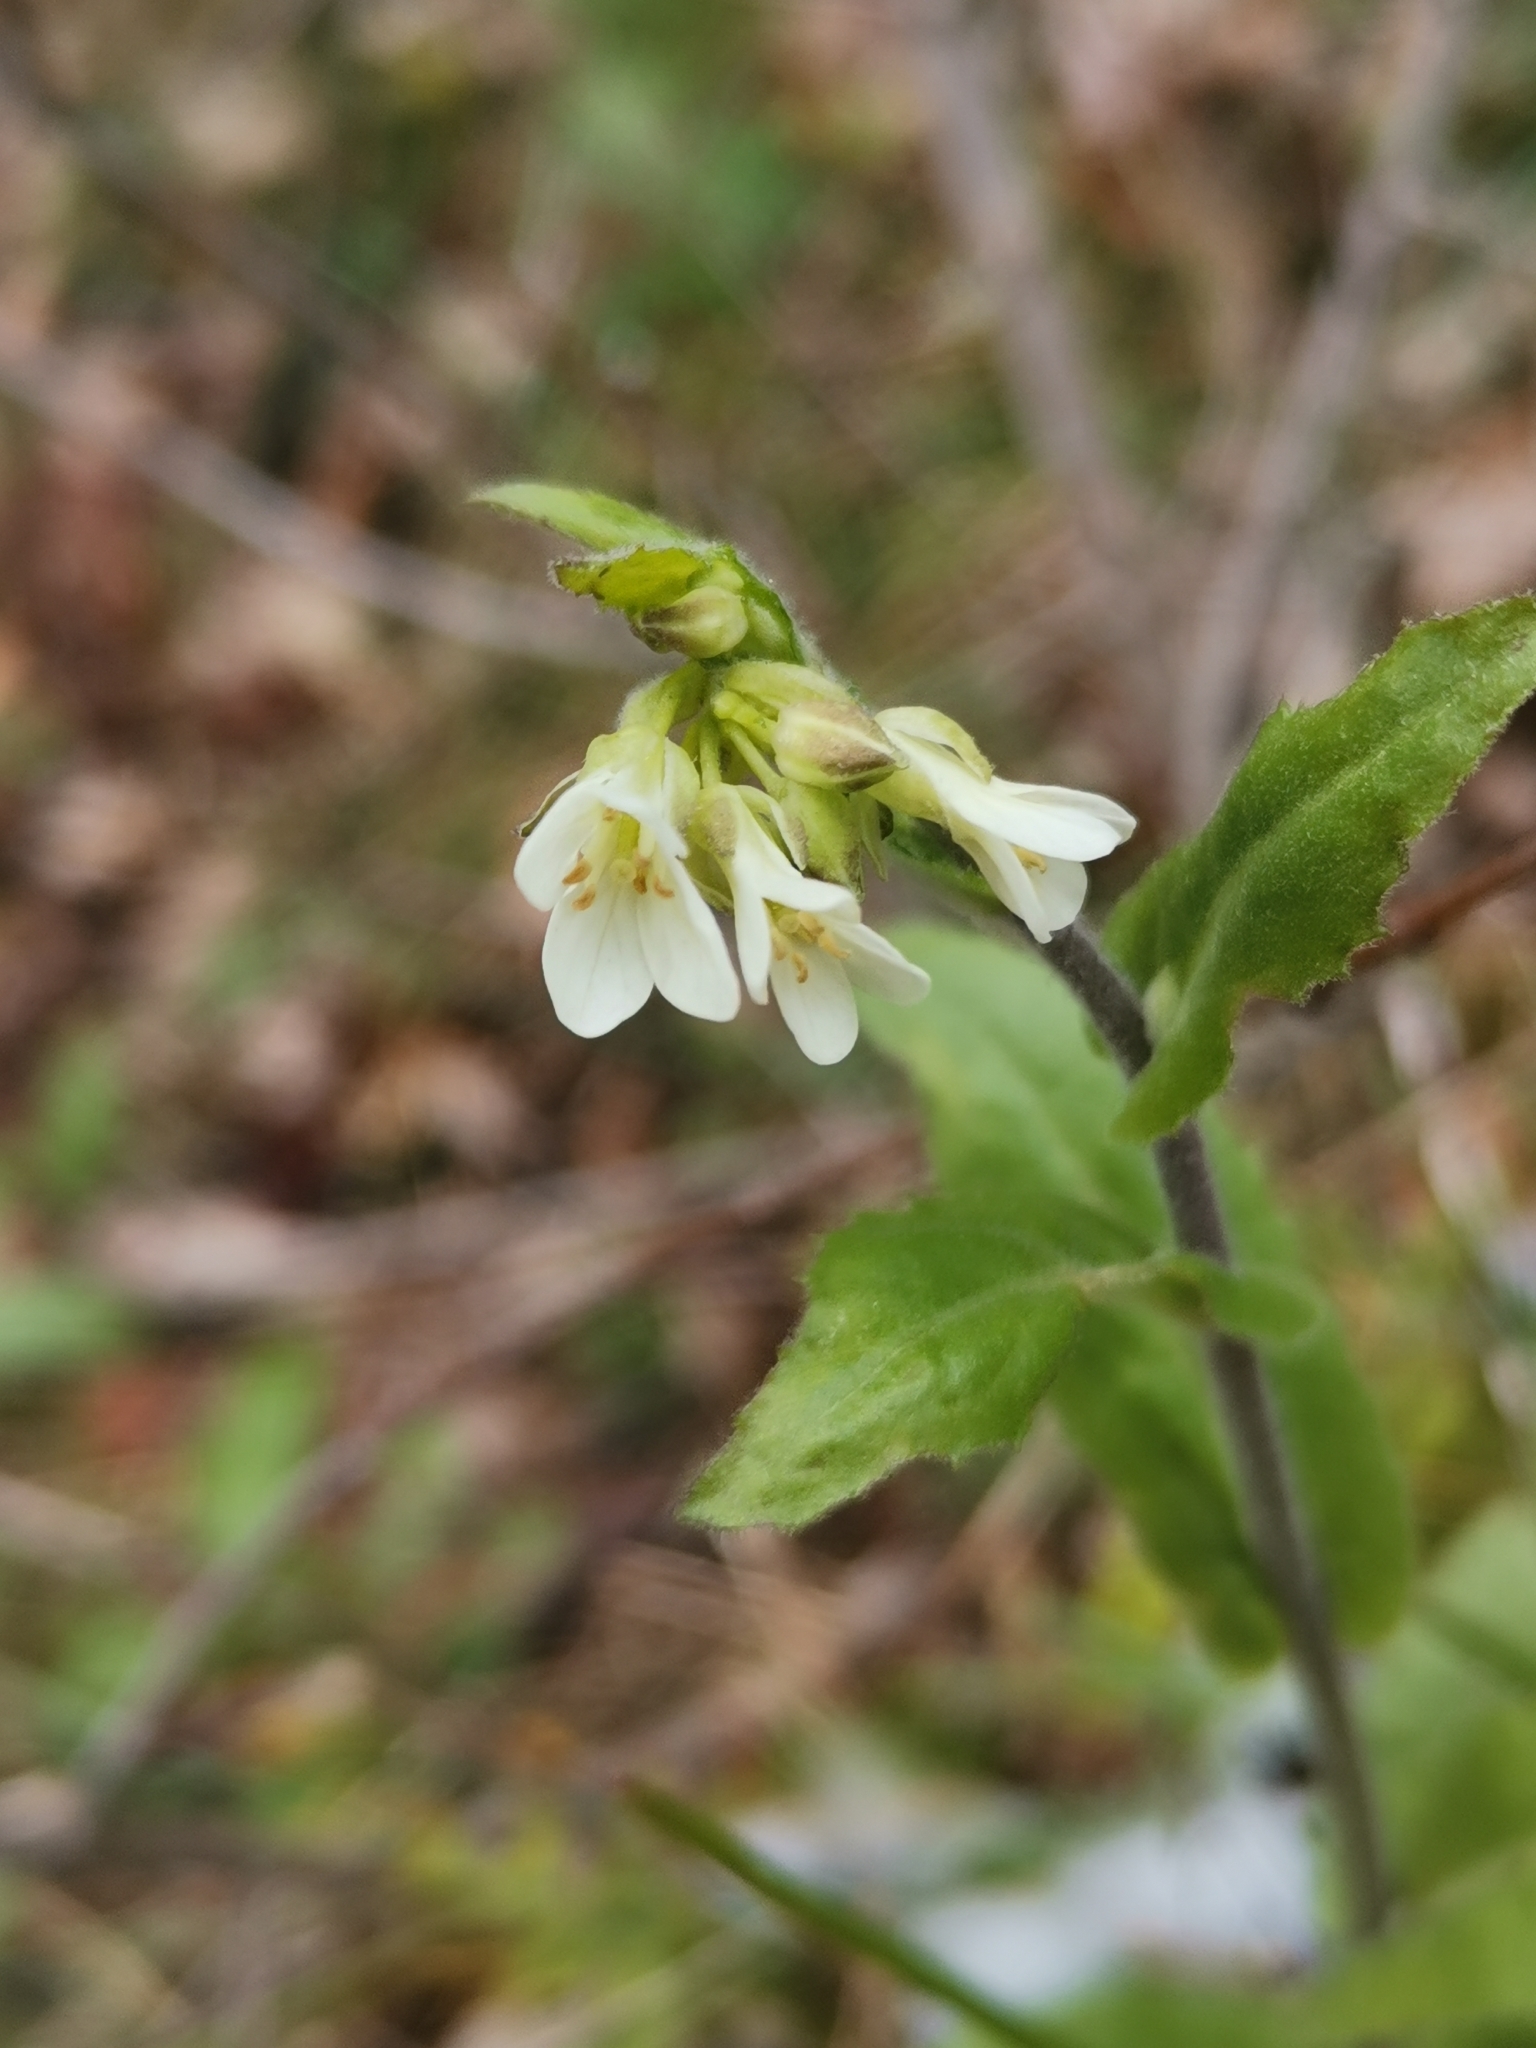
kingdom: Plantae
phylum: Tracheophyta
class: Magnoliopsida
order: Brassicales
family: Brassicaceae
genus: Pseudoturritis
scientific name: Pseudoturritis turrita
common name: Tower cress
